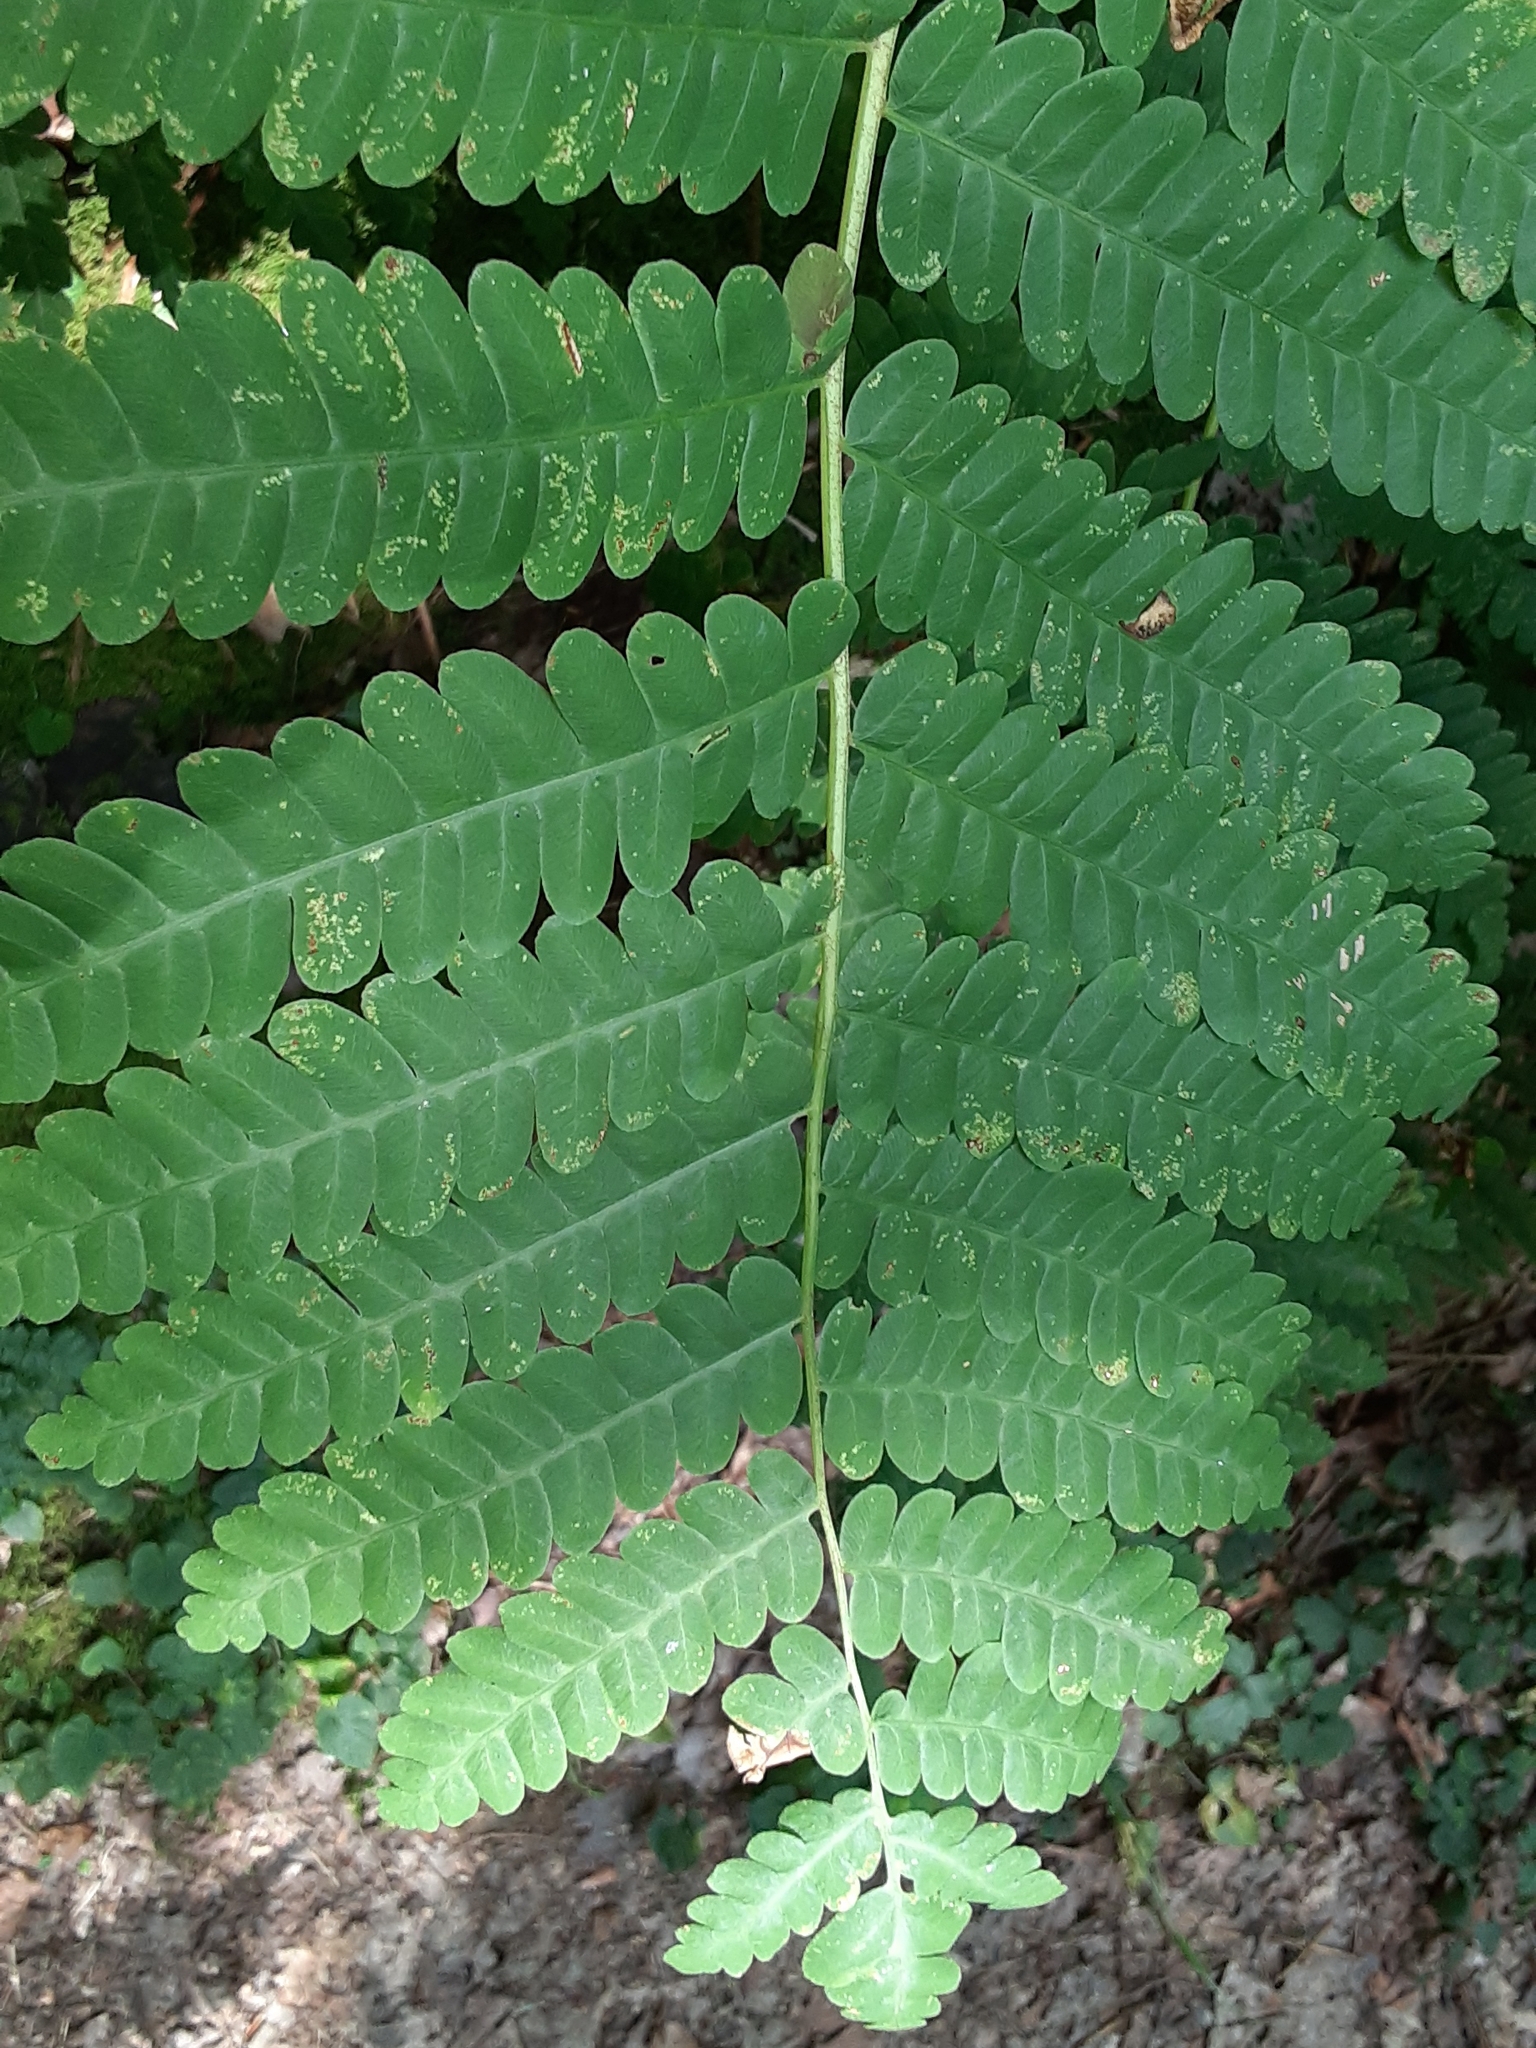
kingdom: Plantae
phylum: Tracheophyta
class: Polypodiopsida
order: Osmundales
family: Osmundaceae
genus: Claytosmunda
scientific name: Claytosmunda claytoniana
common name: Clayton's fern
